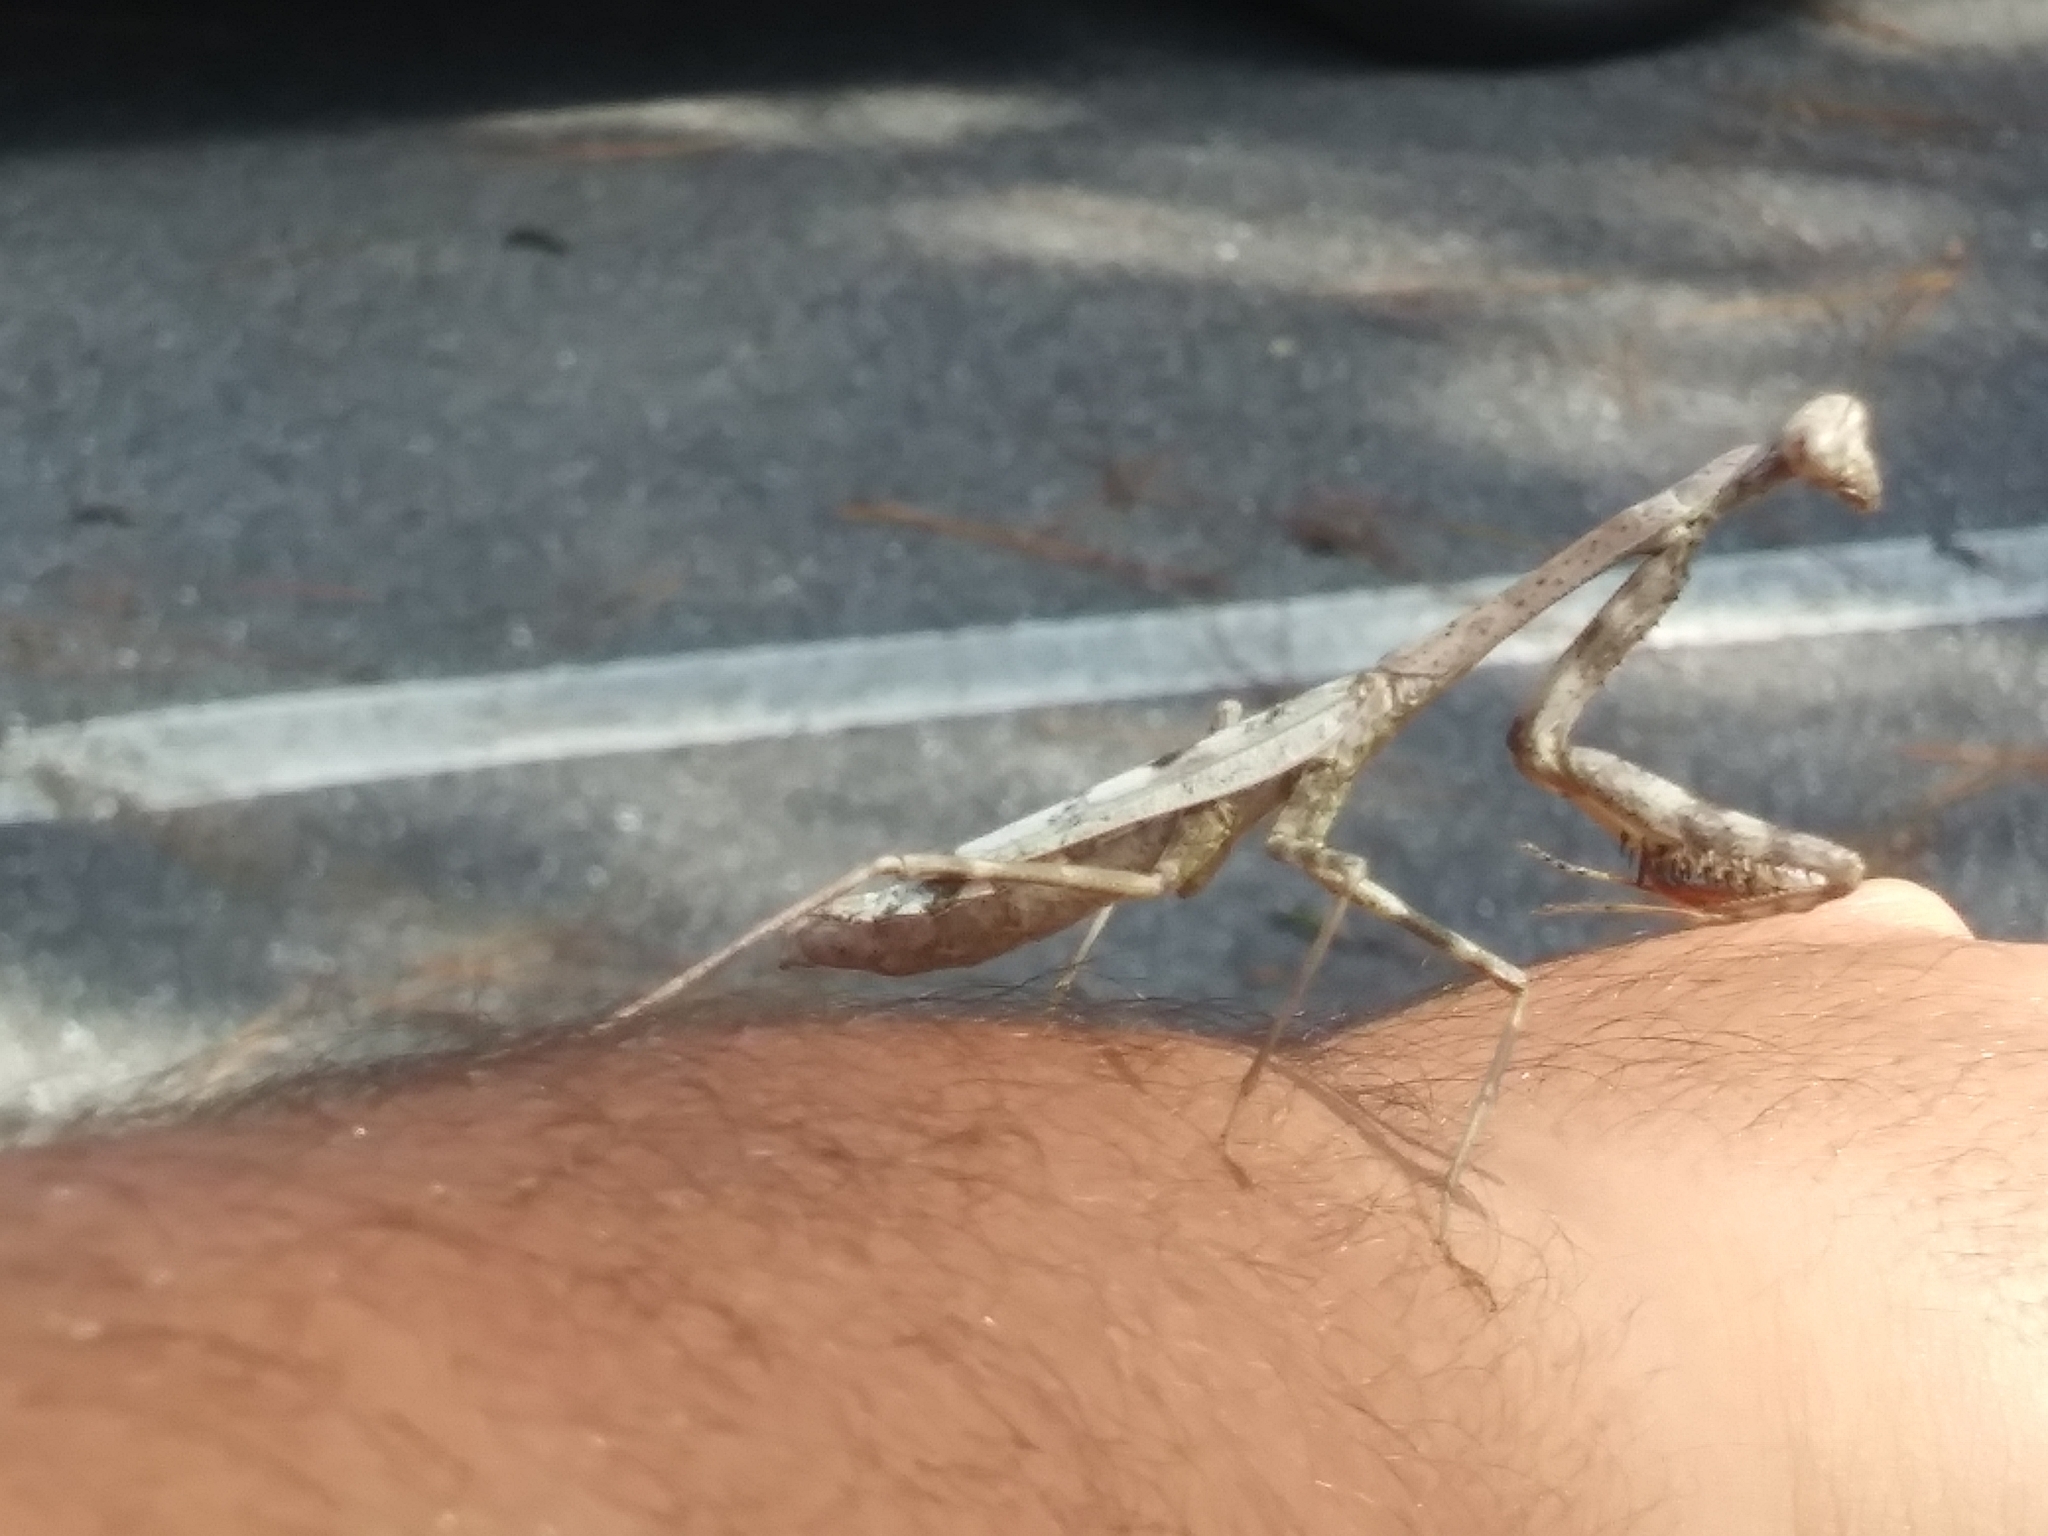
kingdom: Animalia
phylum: Arthropoda
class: Insecta
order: Mantodea
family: Mantidae
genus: Stagmomantis
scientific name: Stagmomantis carolina
